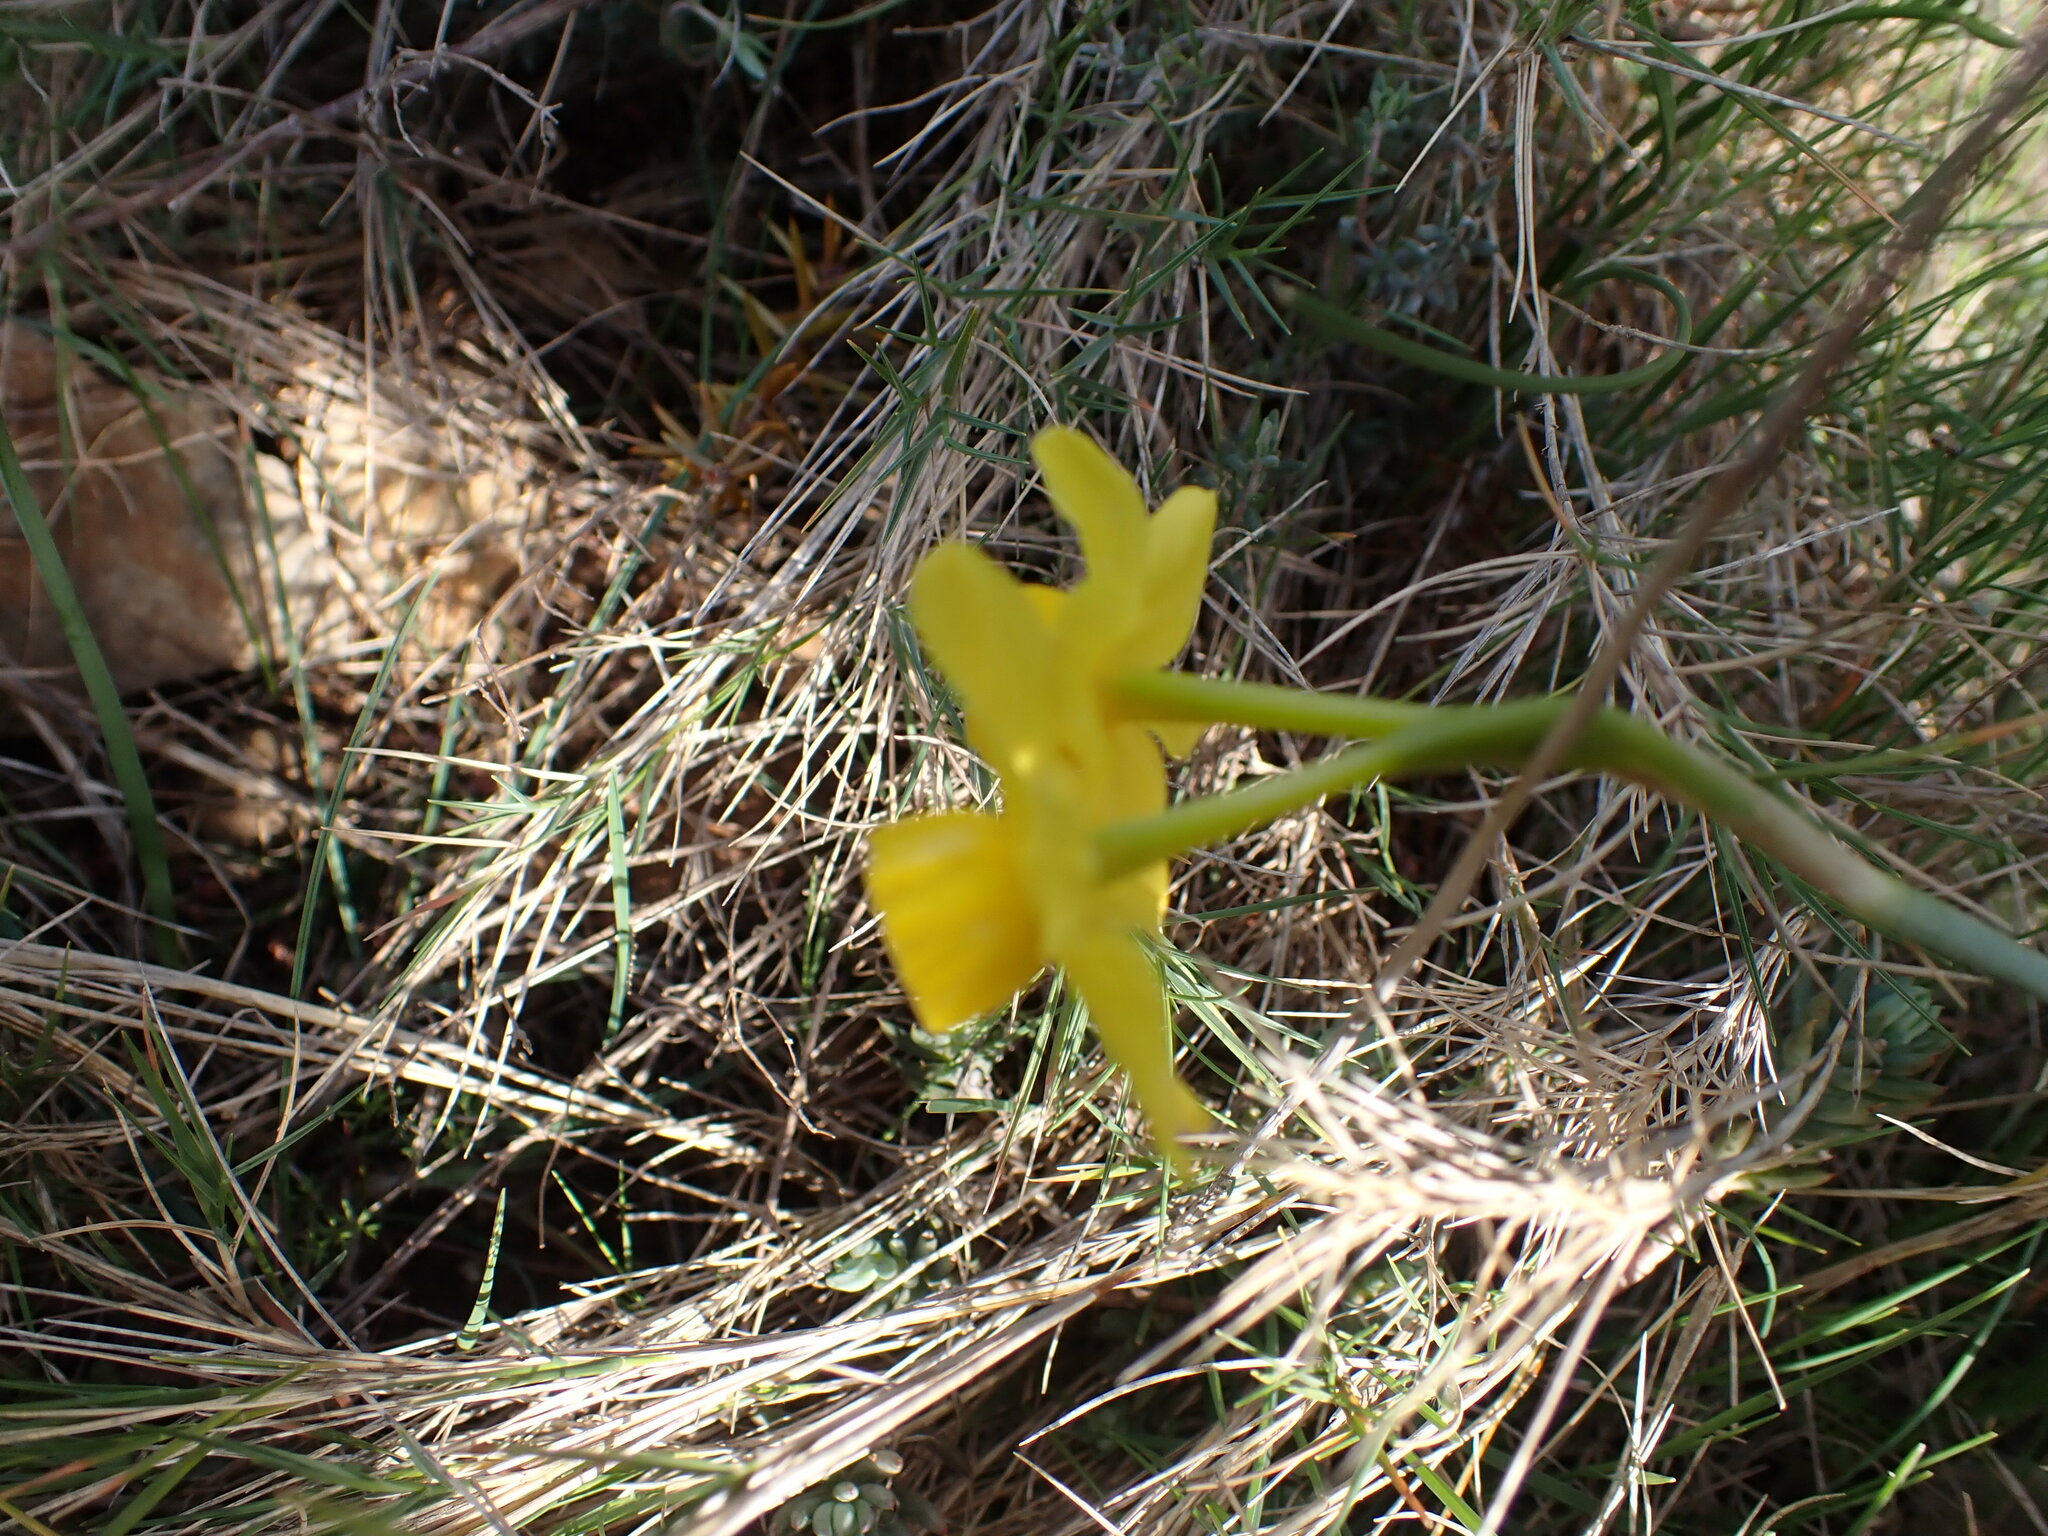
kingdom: Plantae
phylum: Tracheophyta
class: Liliopsida
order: Asparagales
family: Amaryllidaceae
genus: Narcissus
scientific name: Narcissus assoanus
